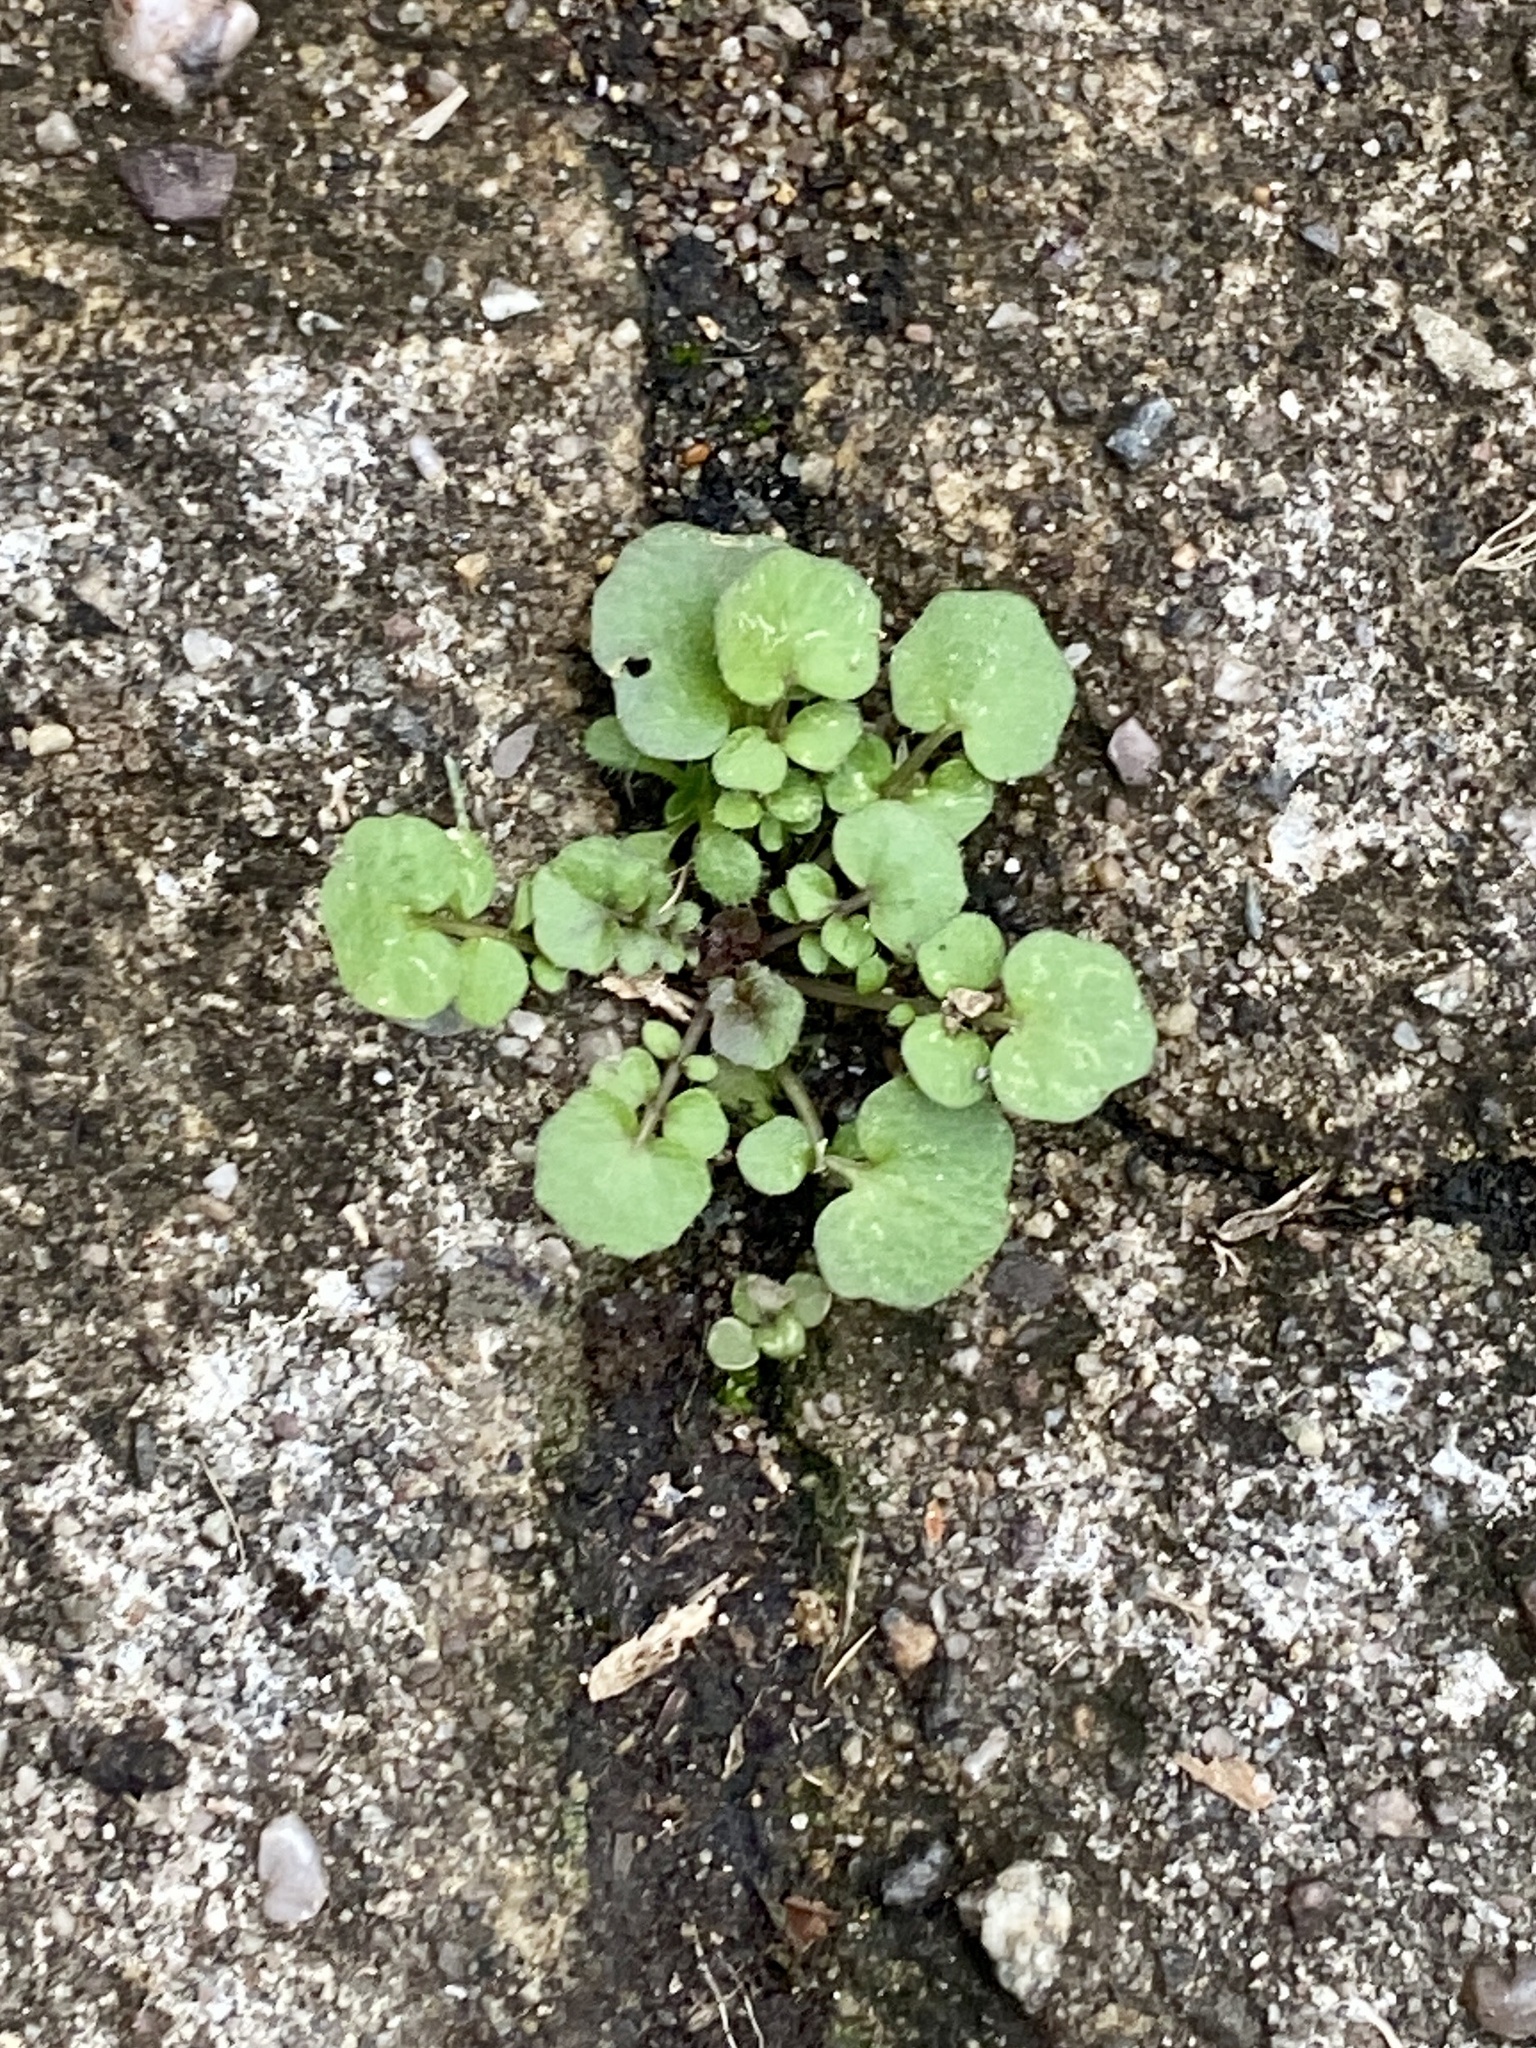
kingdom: Plantae
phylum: Tracheophyta
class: Magnoliopsida
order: Brassicales
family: Brassicaceae
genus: Cardamine
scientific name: Cardamine hirsuta
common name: Hairy bittercress
